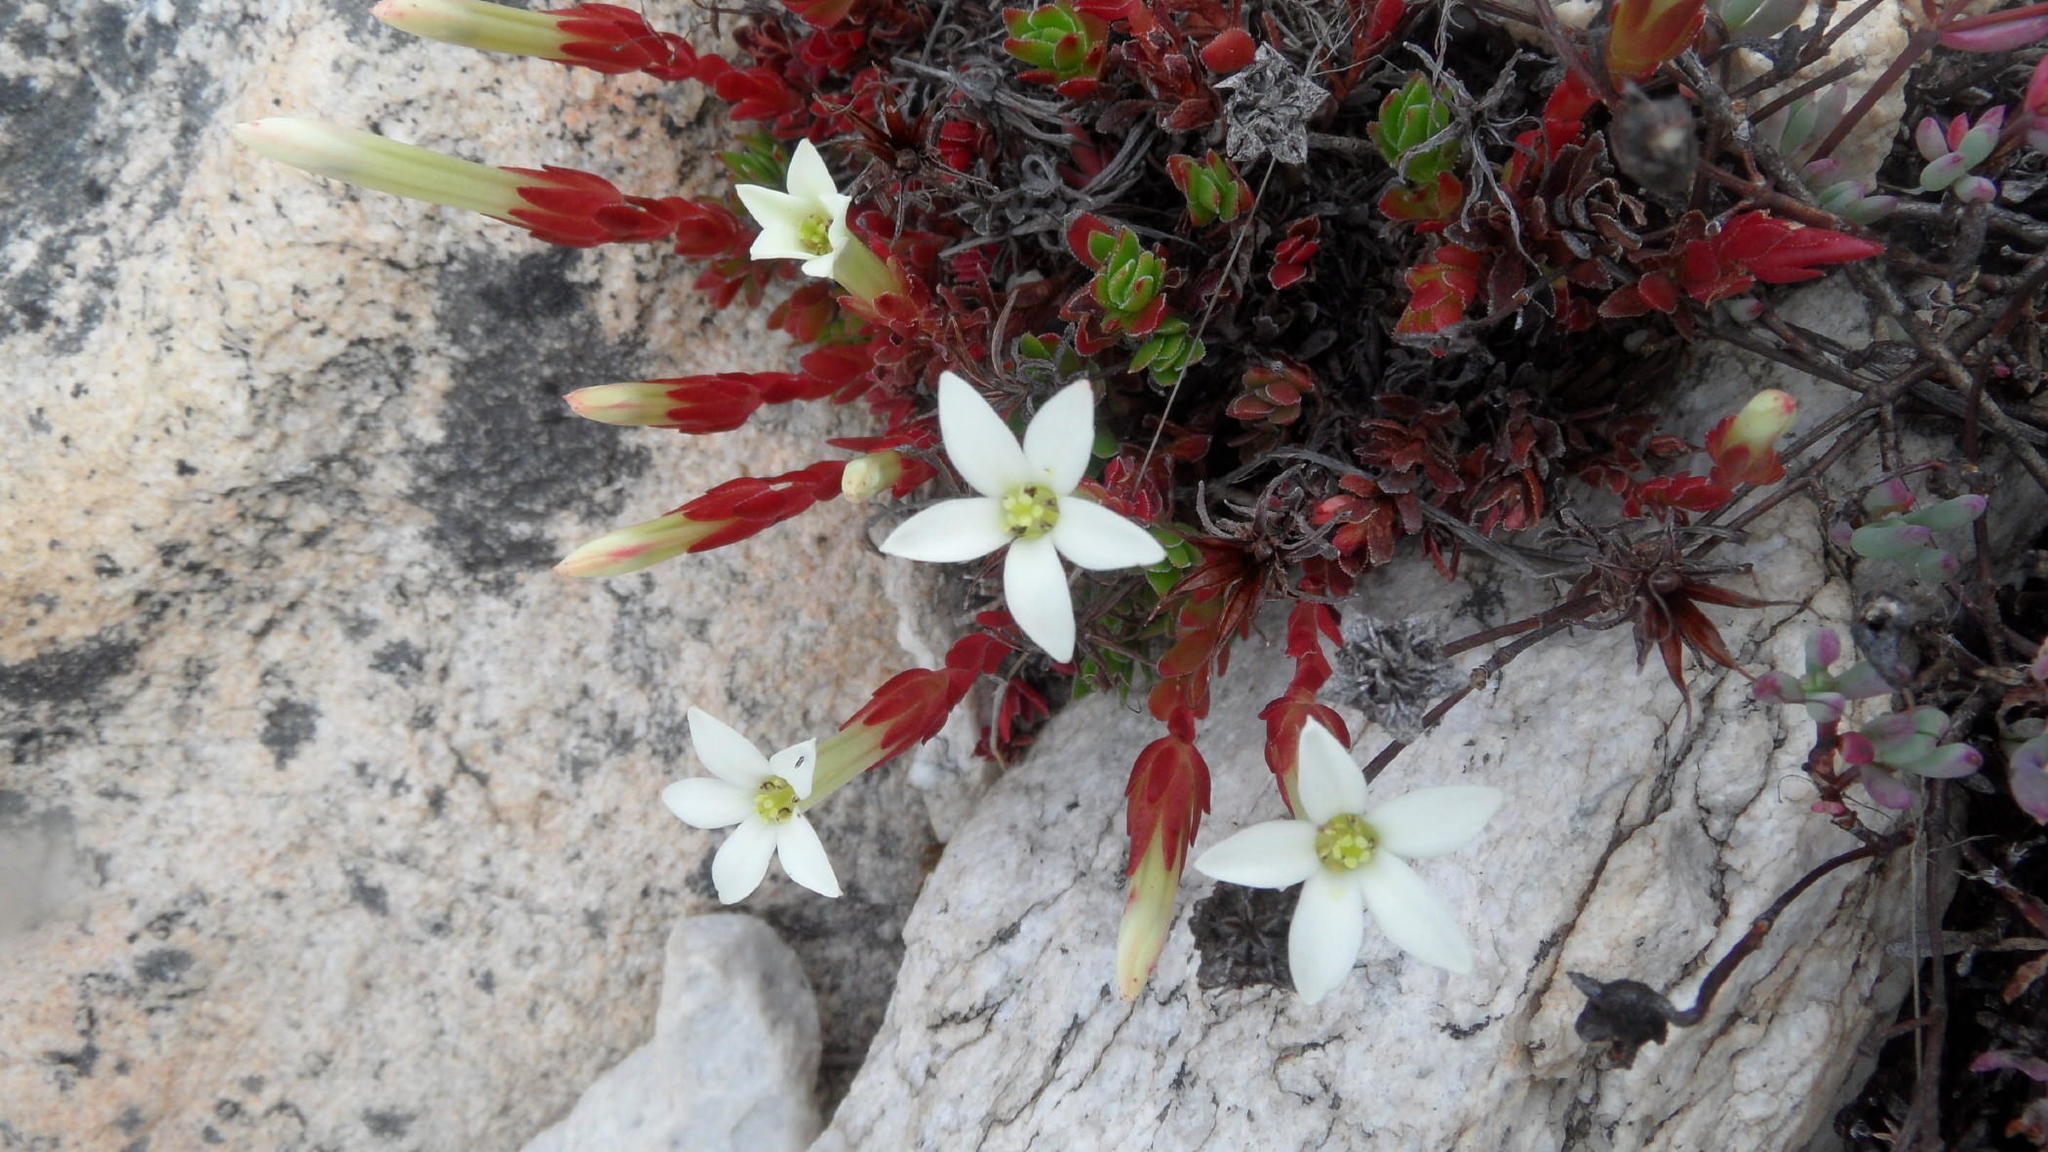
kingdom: Plantae
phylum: Tracheophyta
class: Magnoliopsida
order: Saxifragales
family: Crassulaceae
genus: Crassula
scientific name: Crassula obtusa
